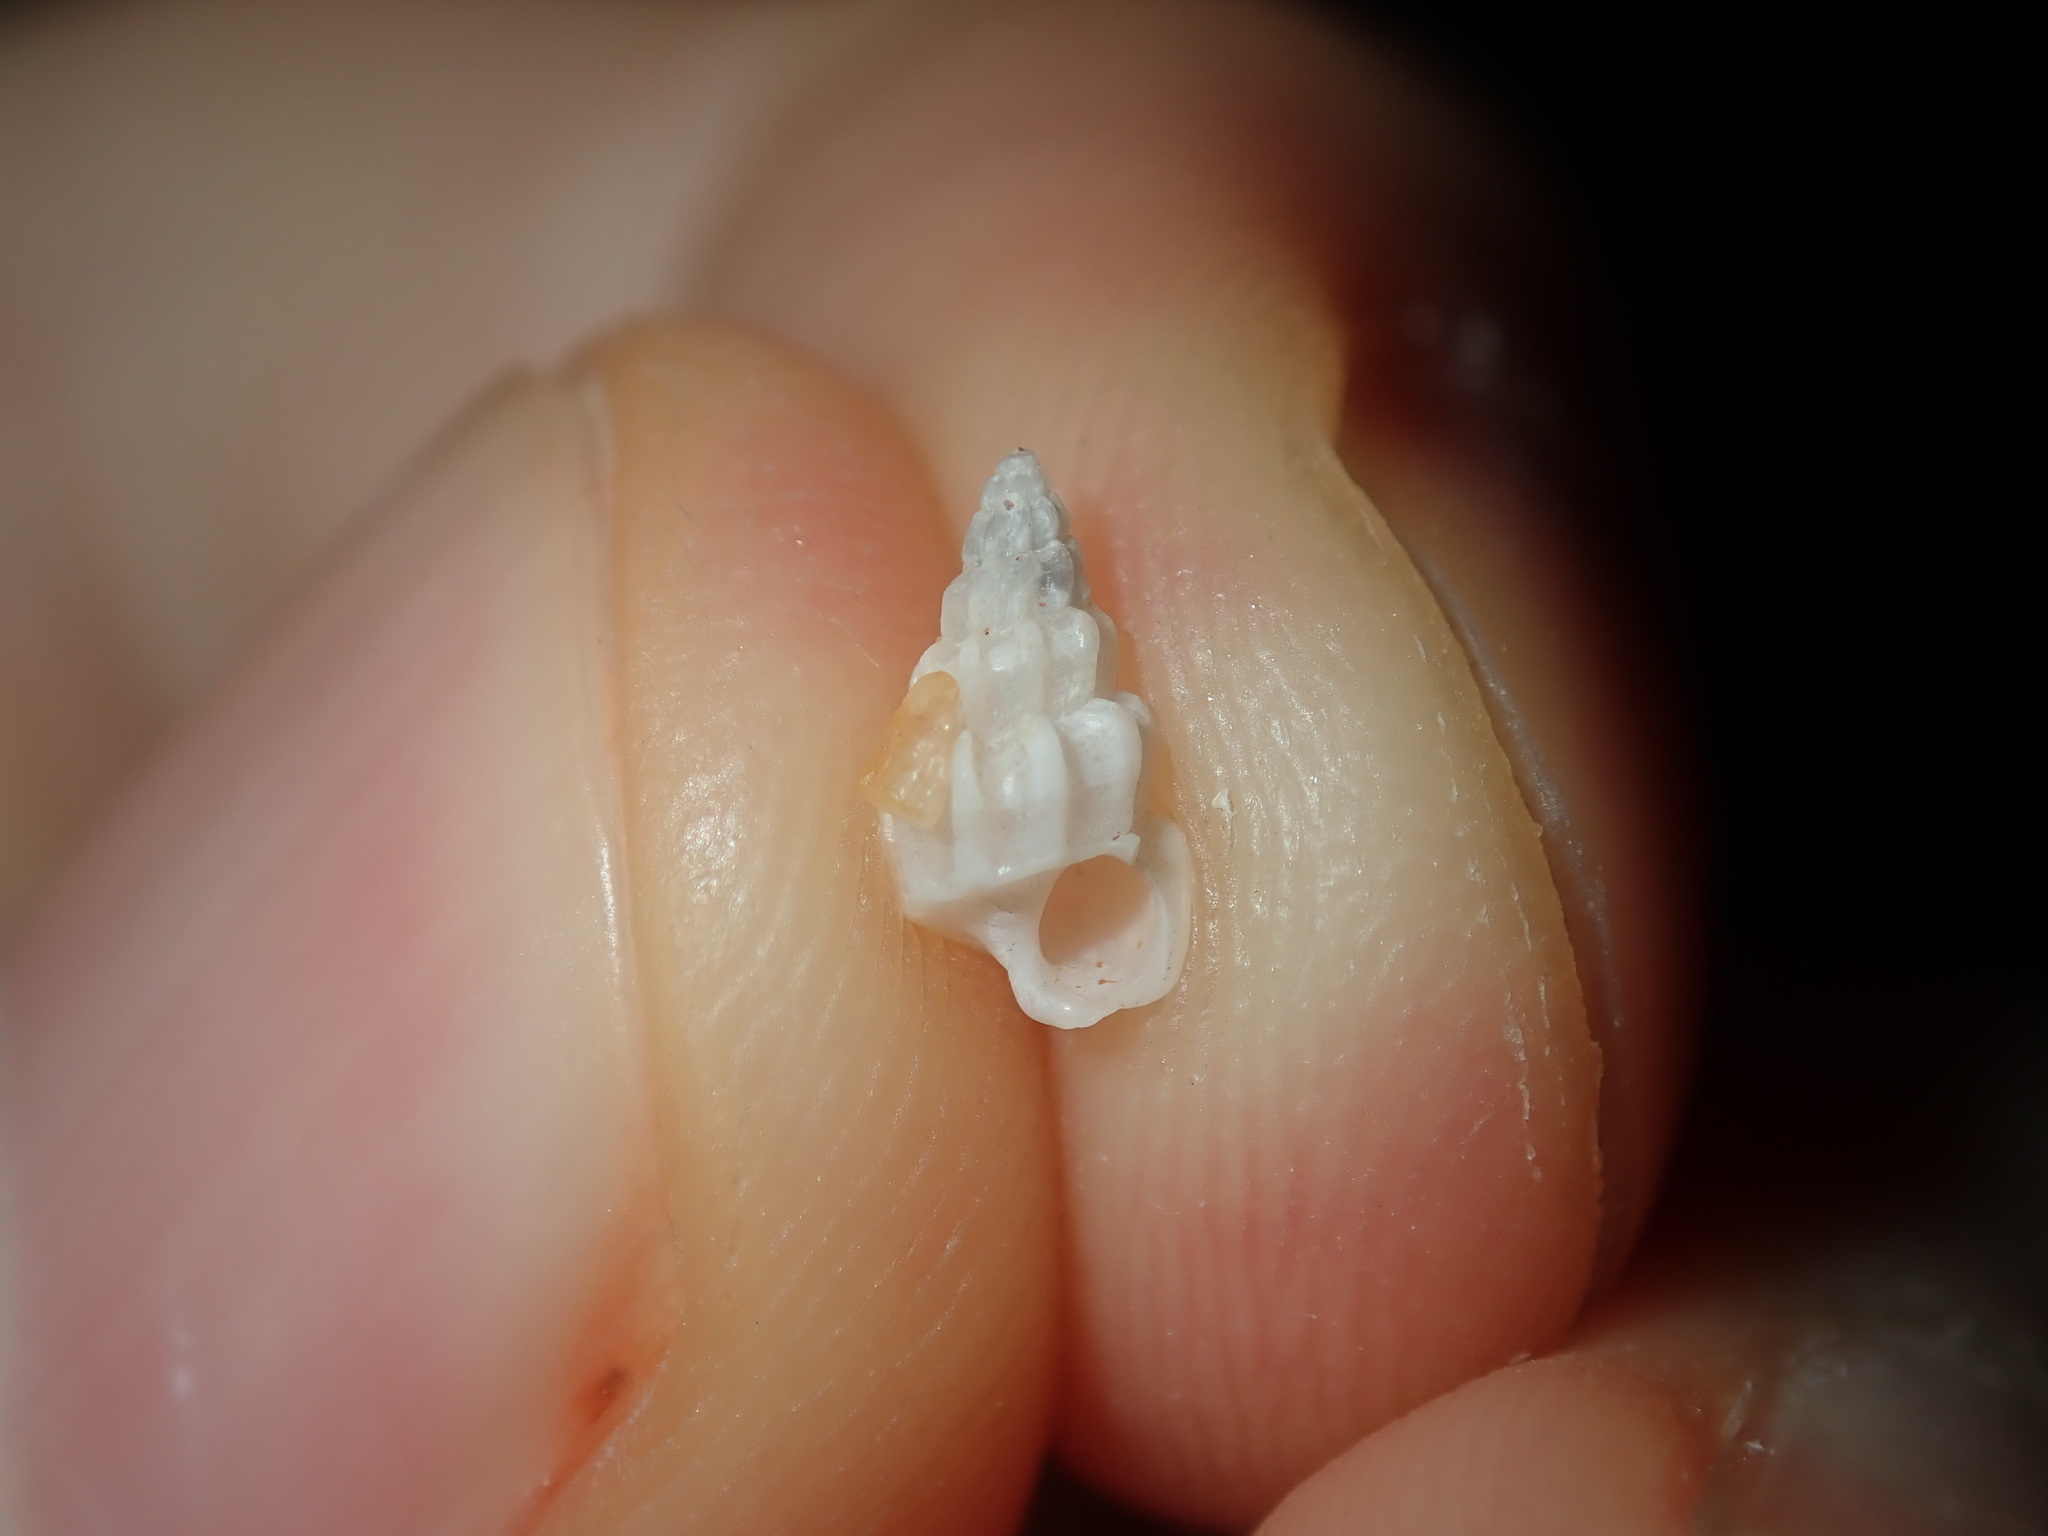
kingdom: Animalia
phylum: Mollusca
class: Gastropoda
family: Epitoniidae
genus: Opalia
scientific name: Opalia australis
